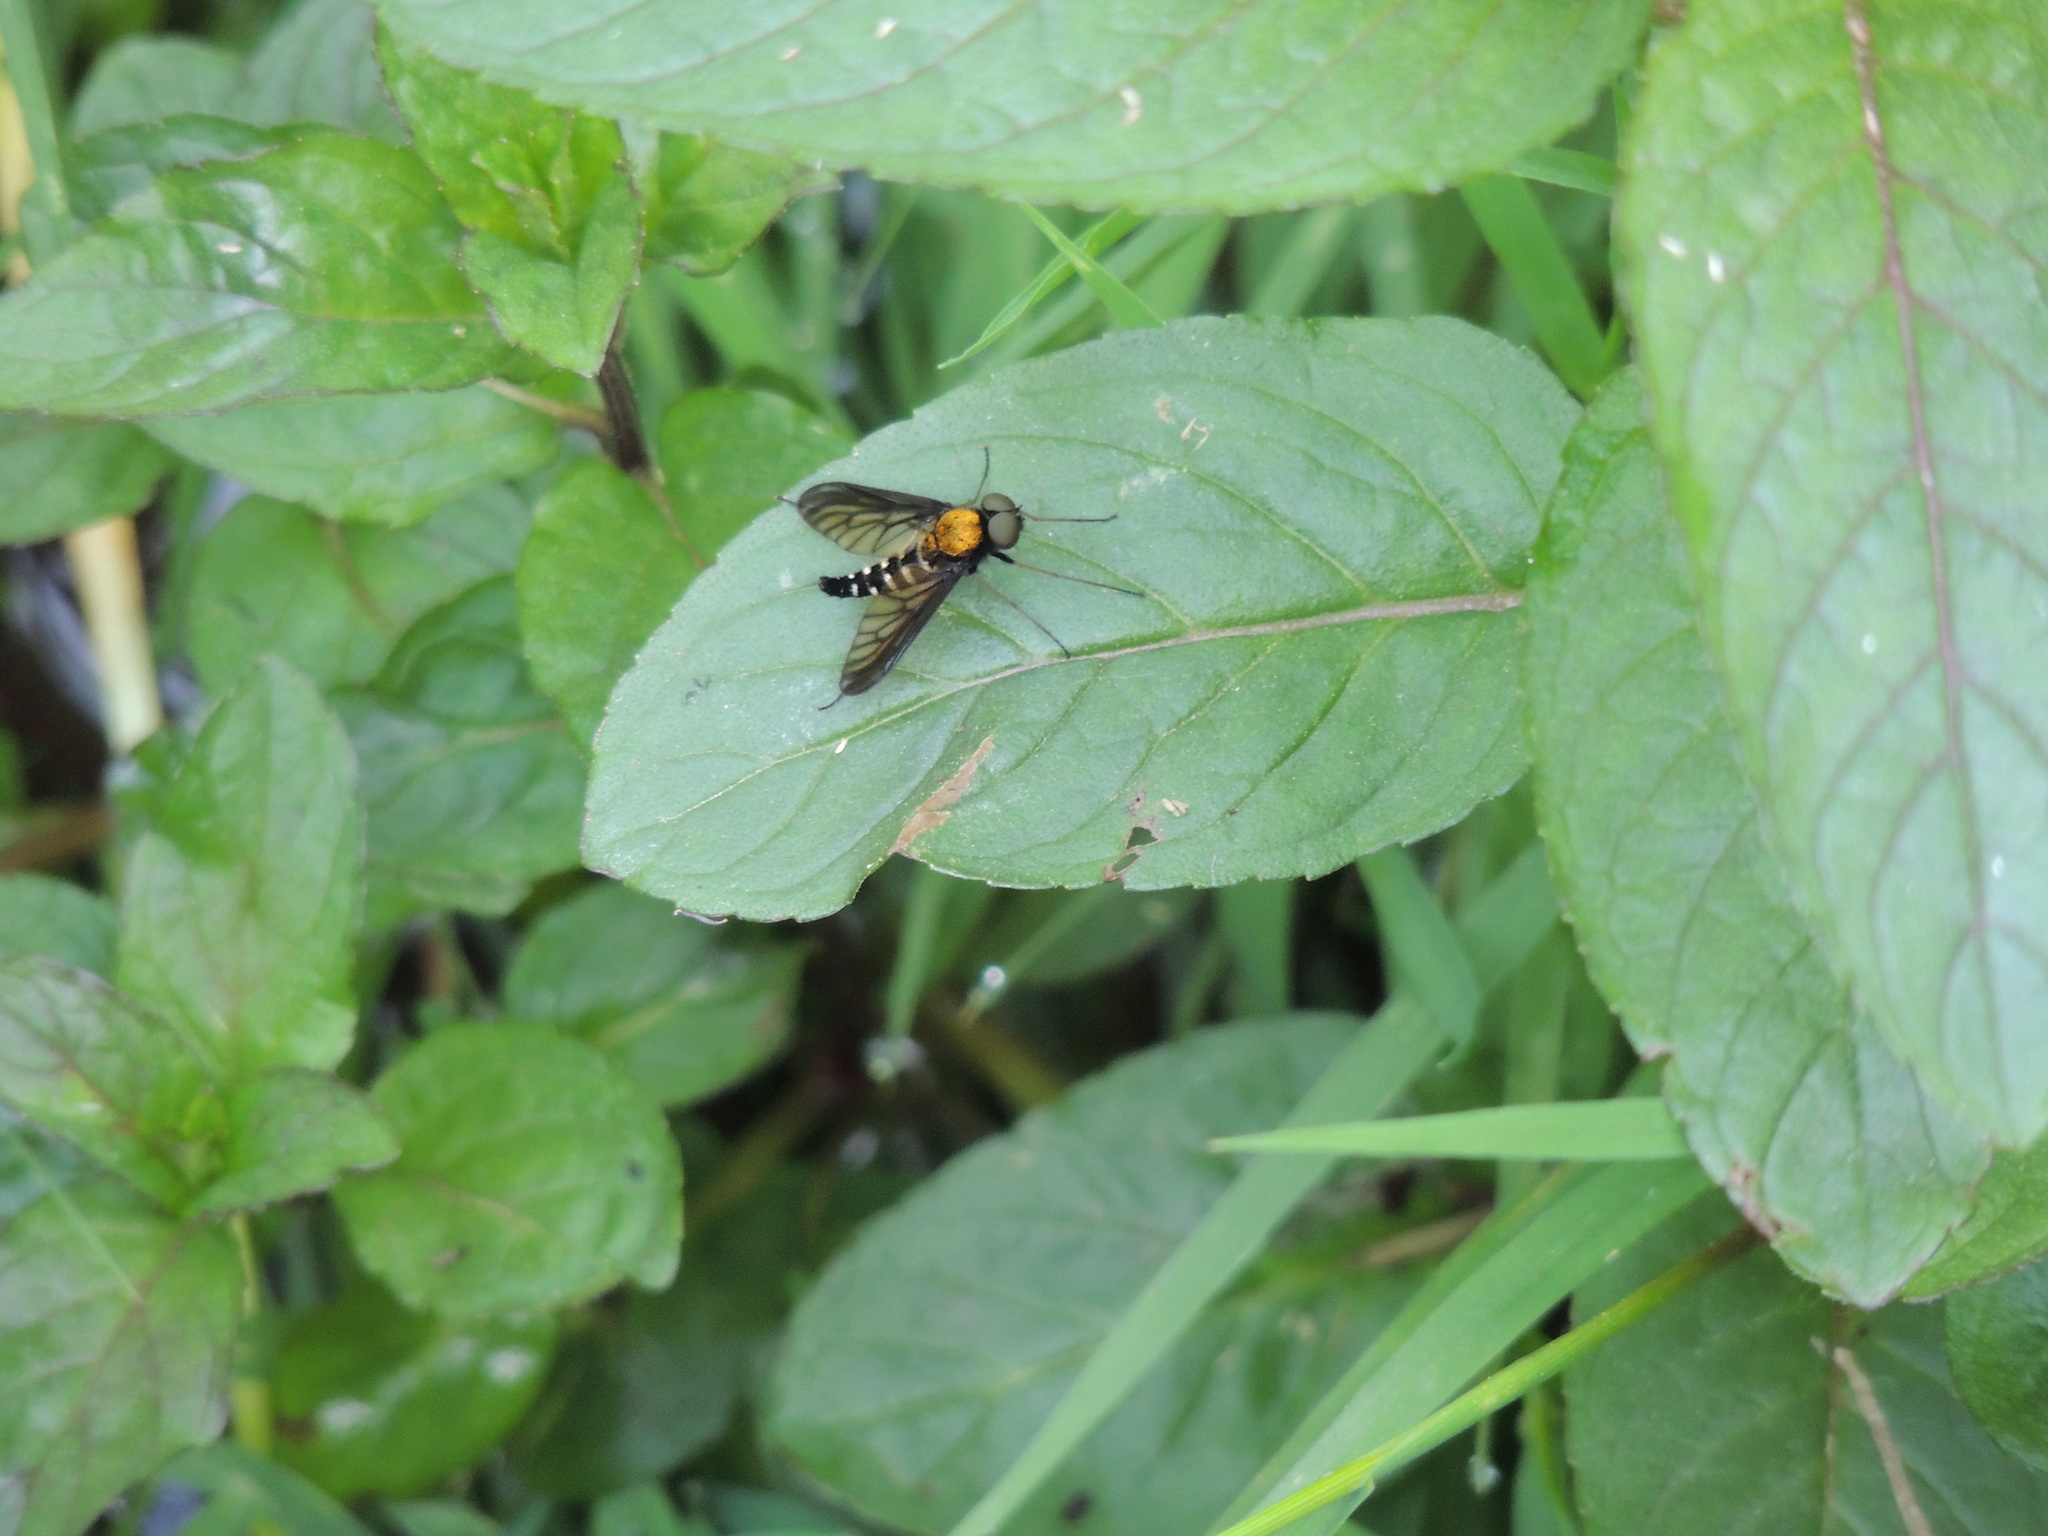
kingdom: Animalia
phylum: Arthropoda
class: Insecta
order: Diptera
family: Rhagionidae
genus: Chrysopilus
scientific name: Chrysopilus thoracicus
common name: Golden-backed snipe fly
